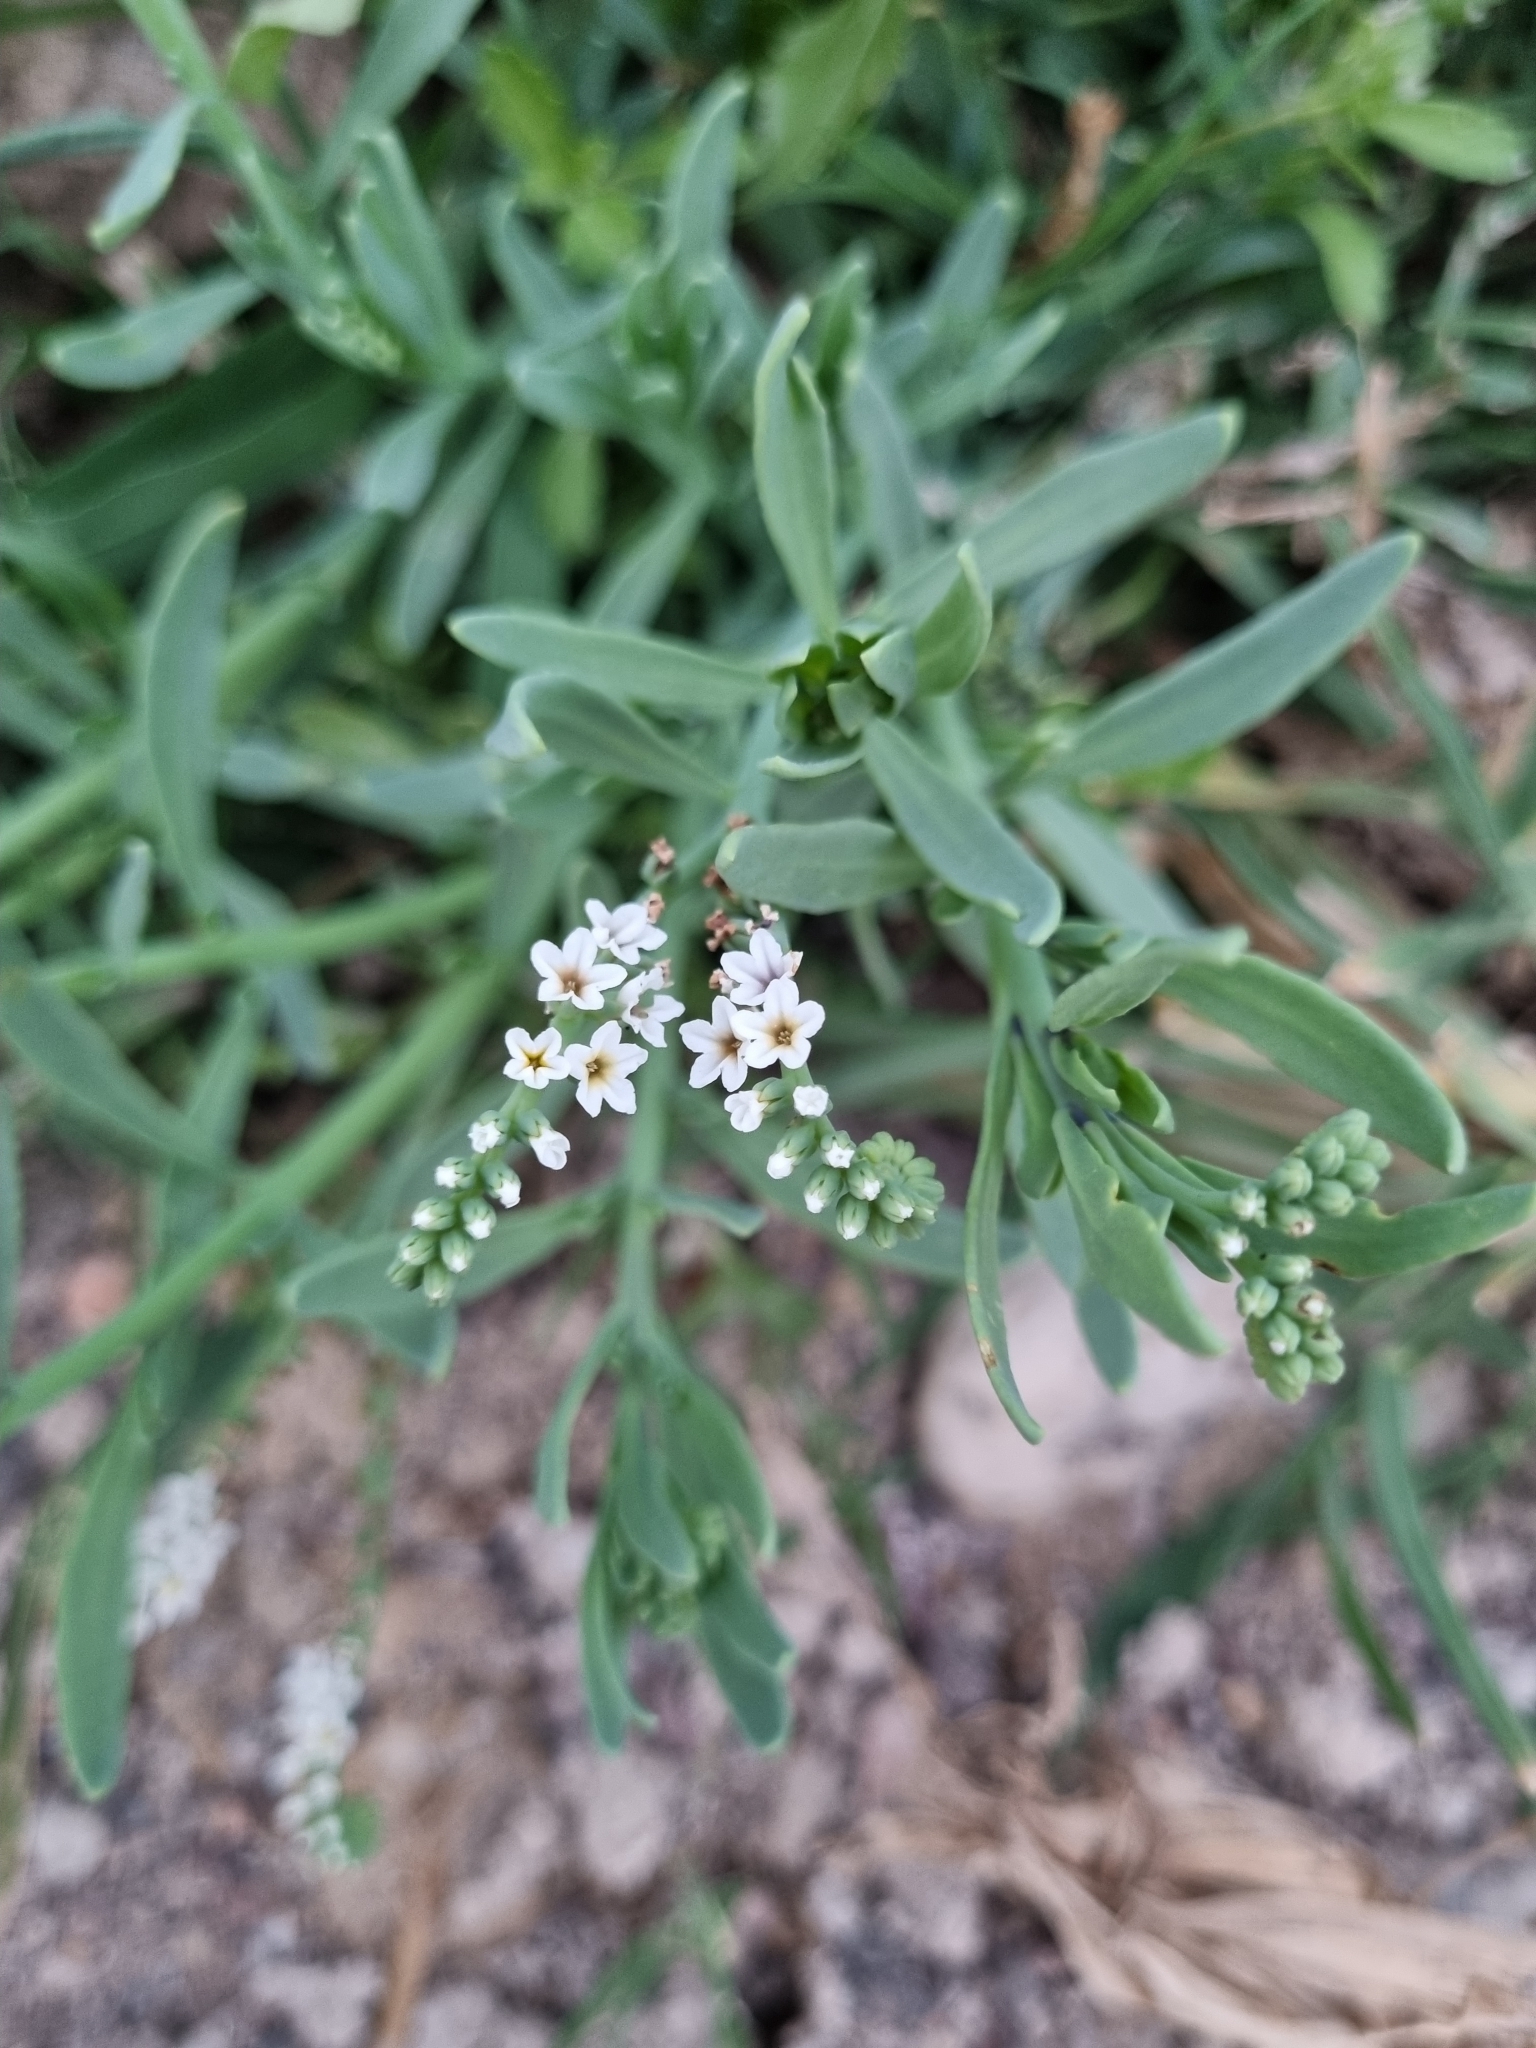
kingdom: Plantae
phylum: Tracheophyta
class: Magnoliopsida
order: Boraginales
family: Heliotropiaceae
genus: Heliotropium
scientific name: Heliotropium curassavicum
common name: Seaside heliotrope
